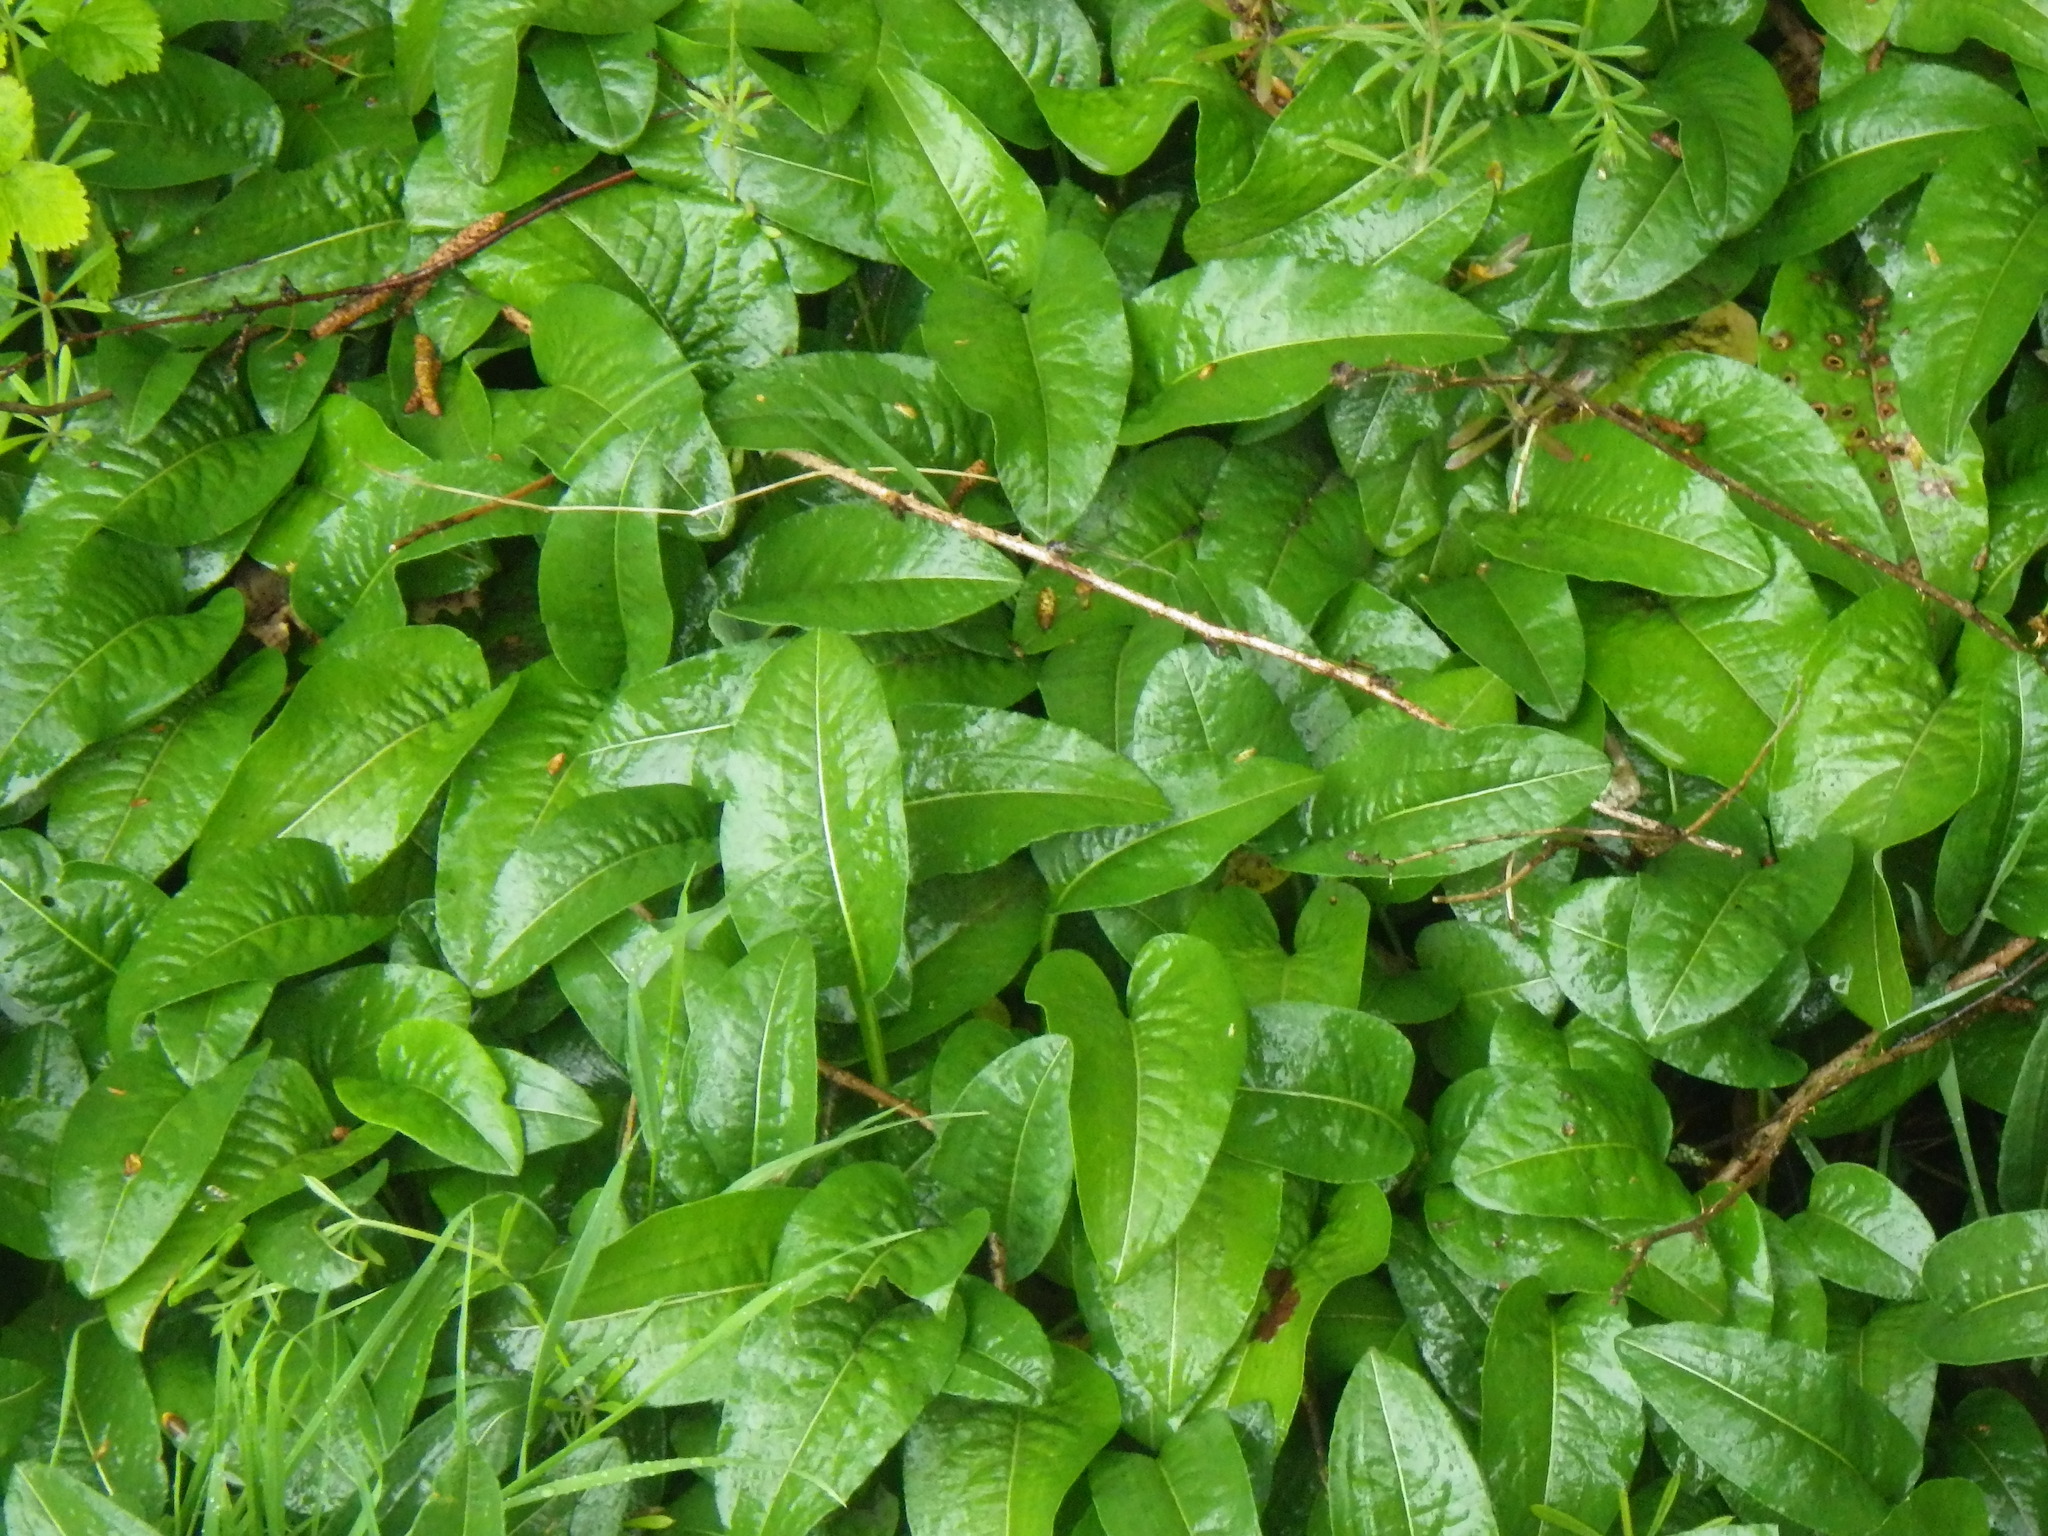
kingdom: Plantae
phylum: Tracheophyta
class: Magnoliopsida
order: Caryophyllales
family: Polygonaceae
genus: Bistorta
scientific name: Bistorta officinalis
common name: Common bistort
